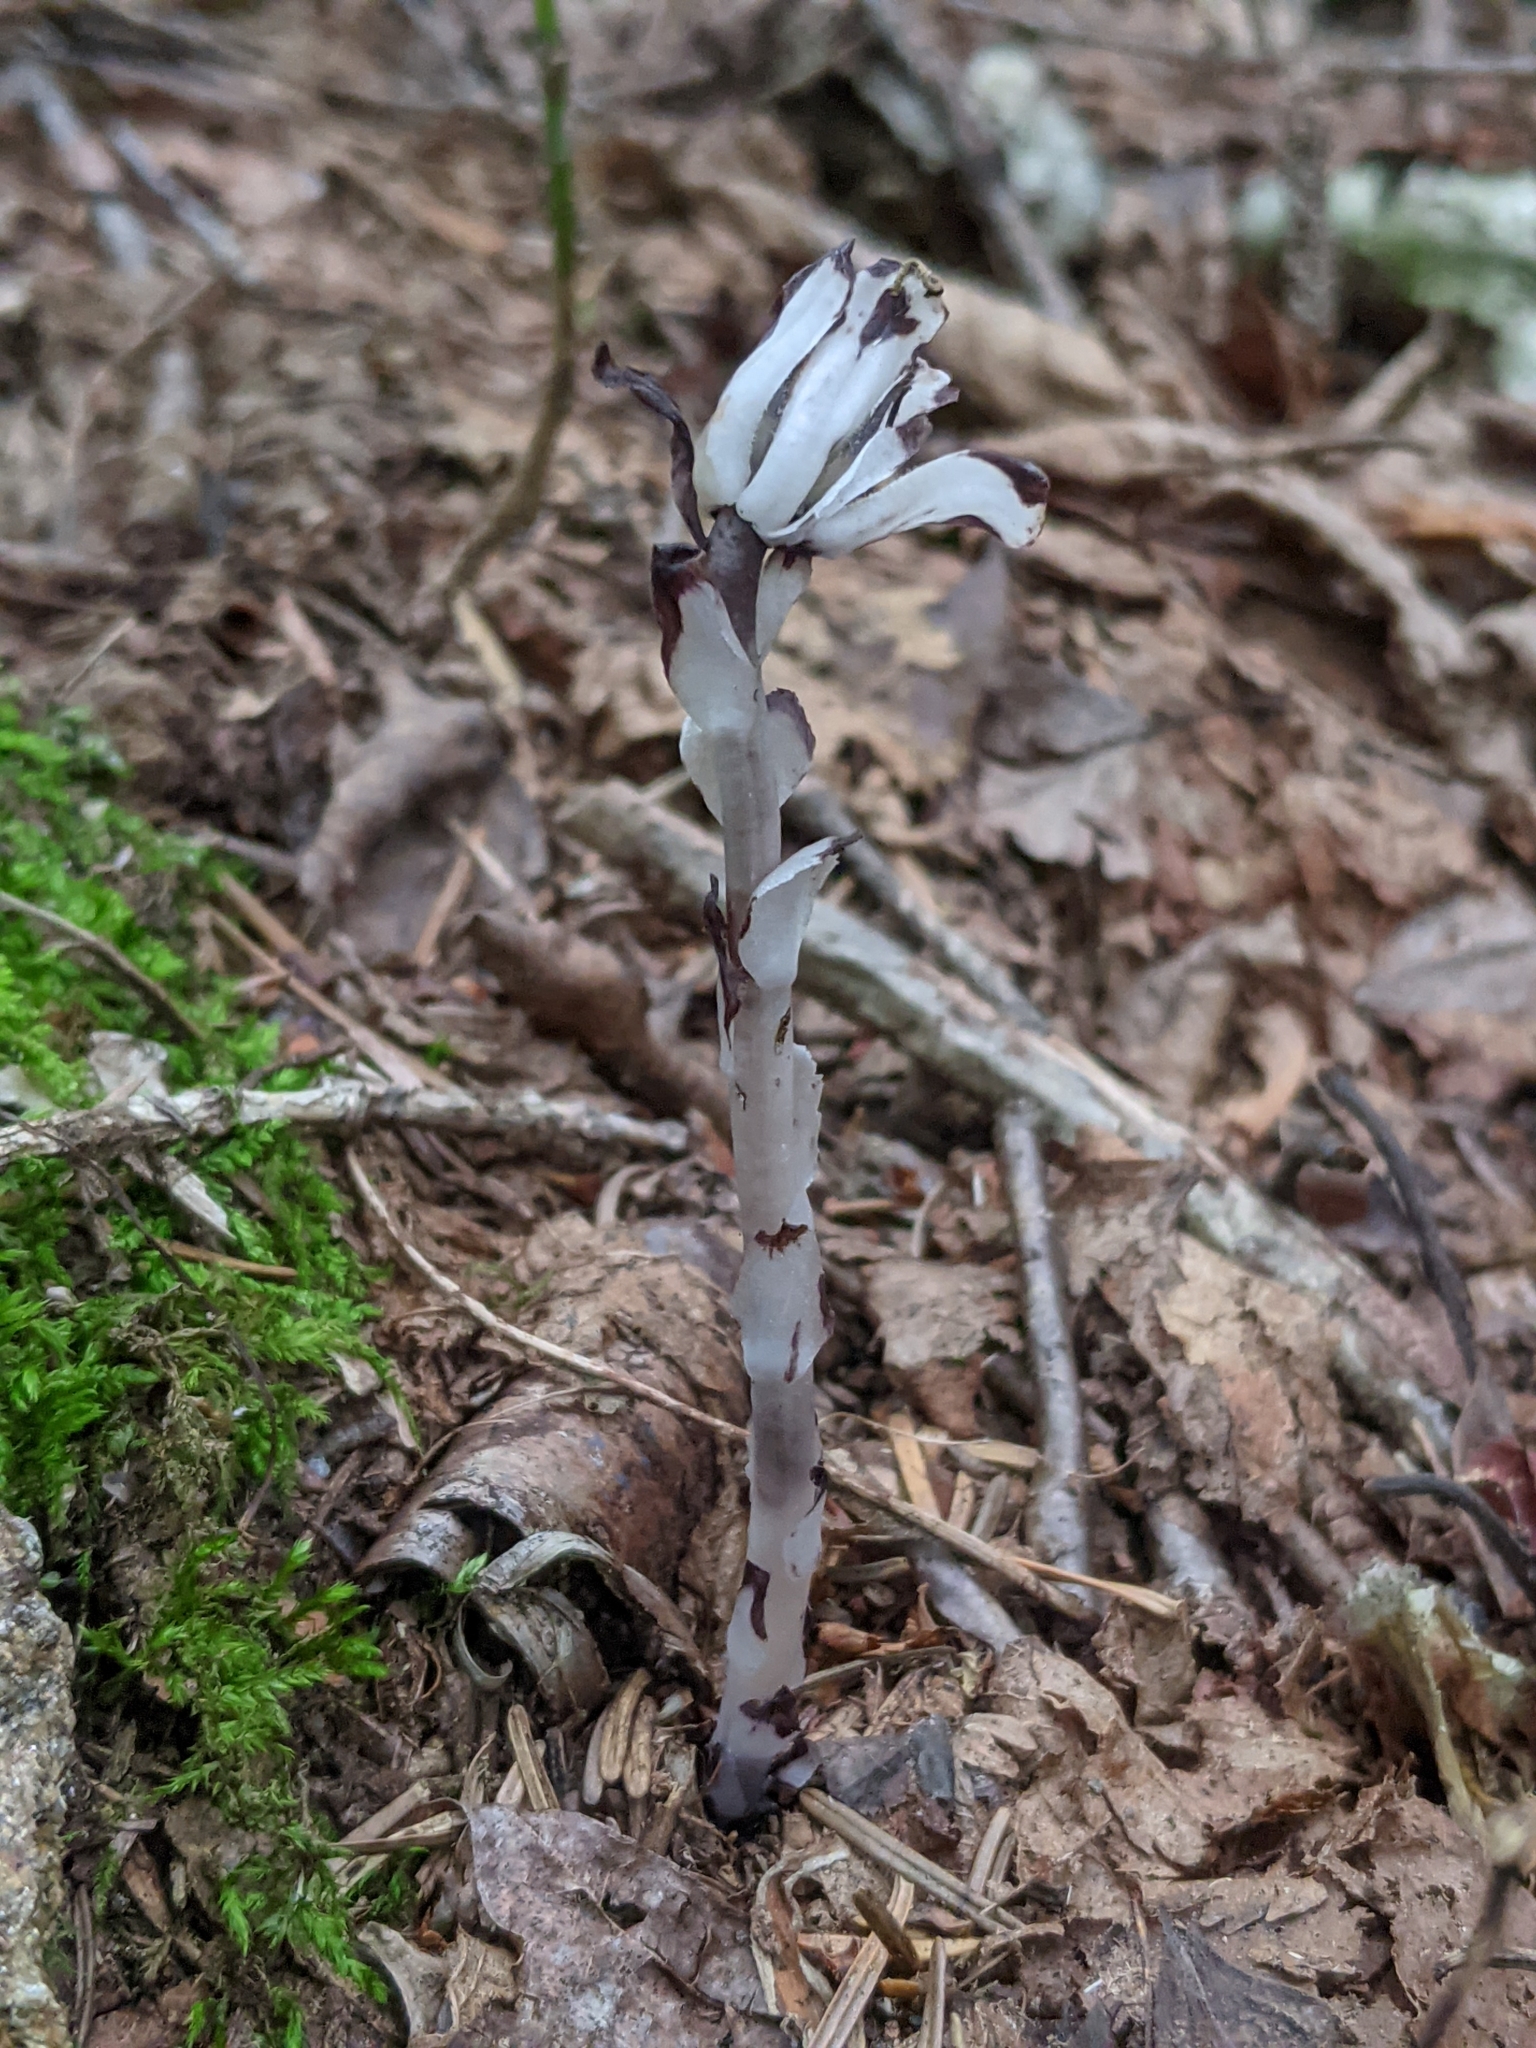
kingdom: Plantae
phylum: Tracheophyta
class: Magnoliopsida
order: Ericales
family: Ericaceae
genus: Monotropa
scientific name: Monotropa uniflora
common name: Convulsion root
